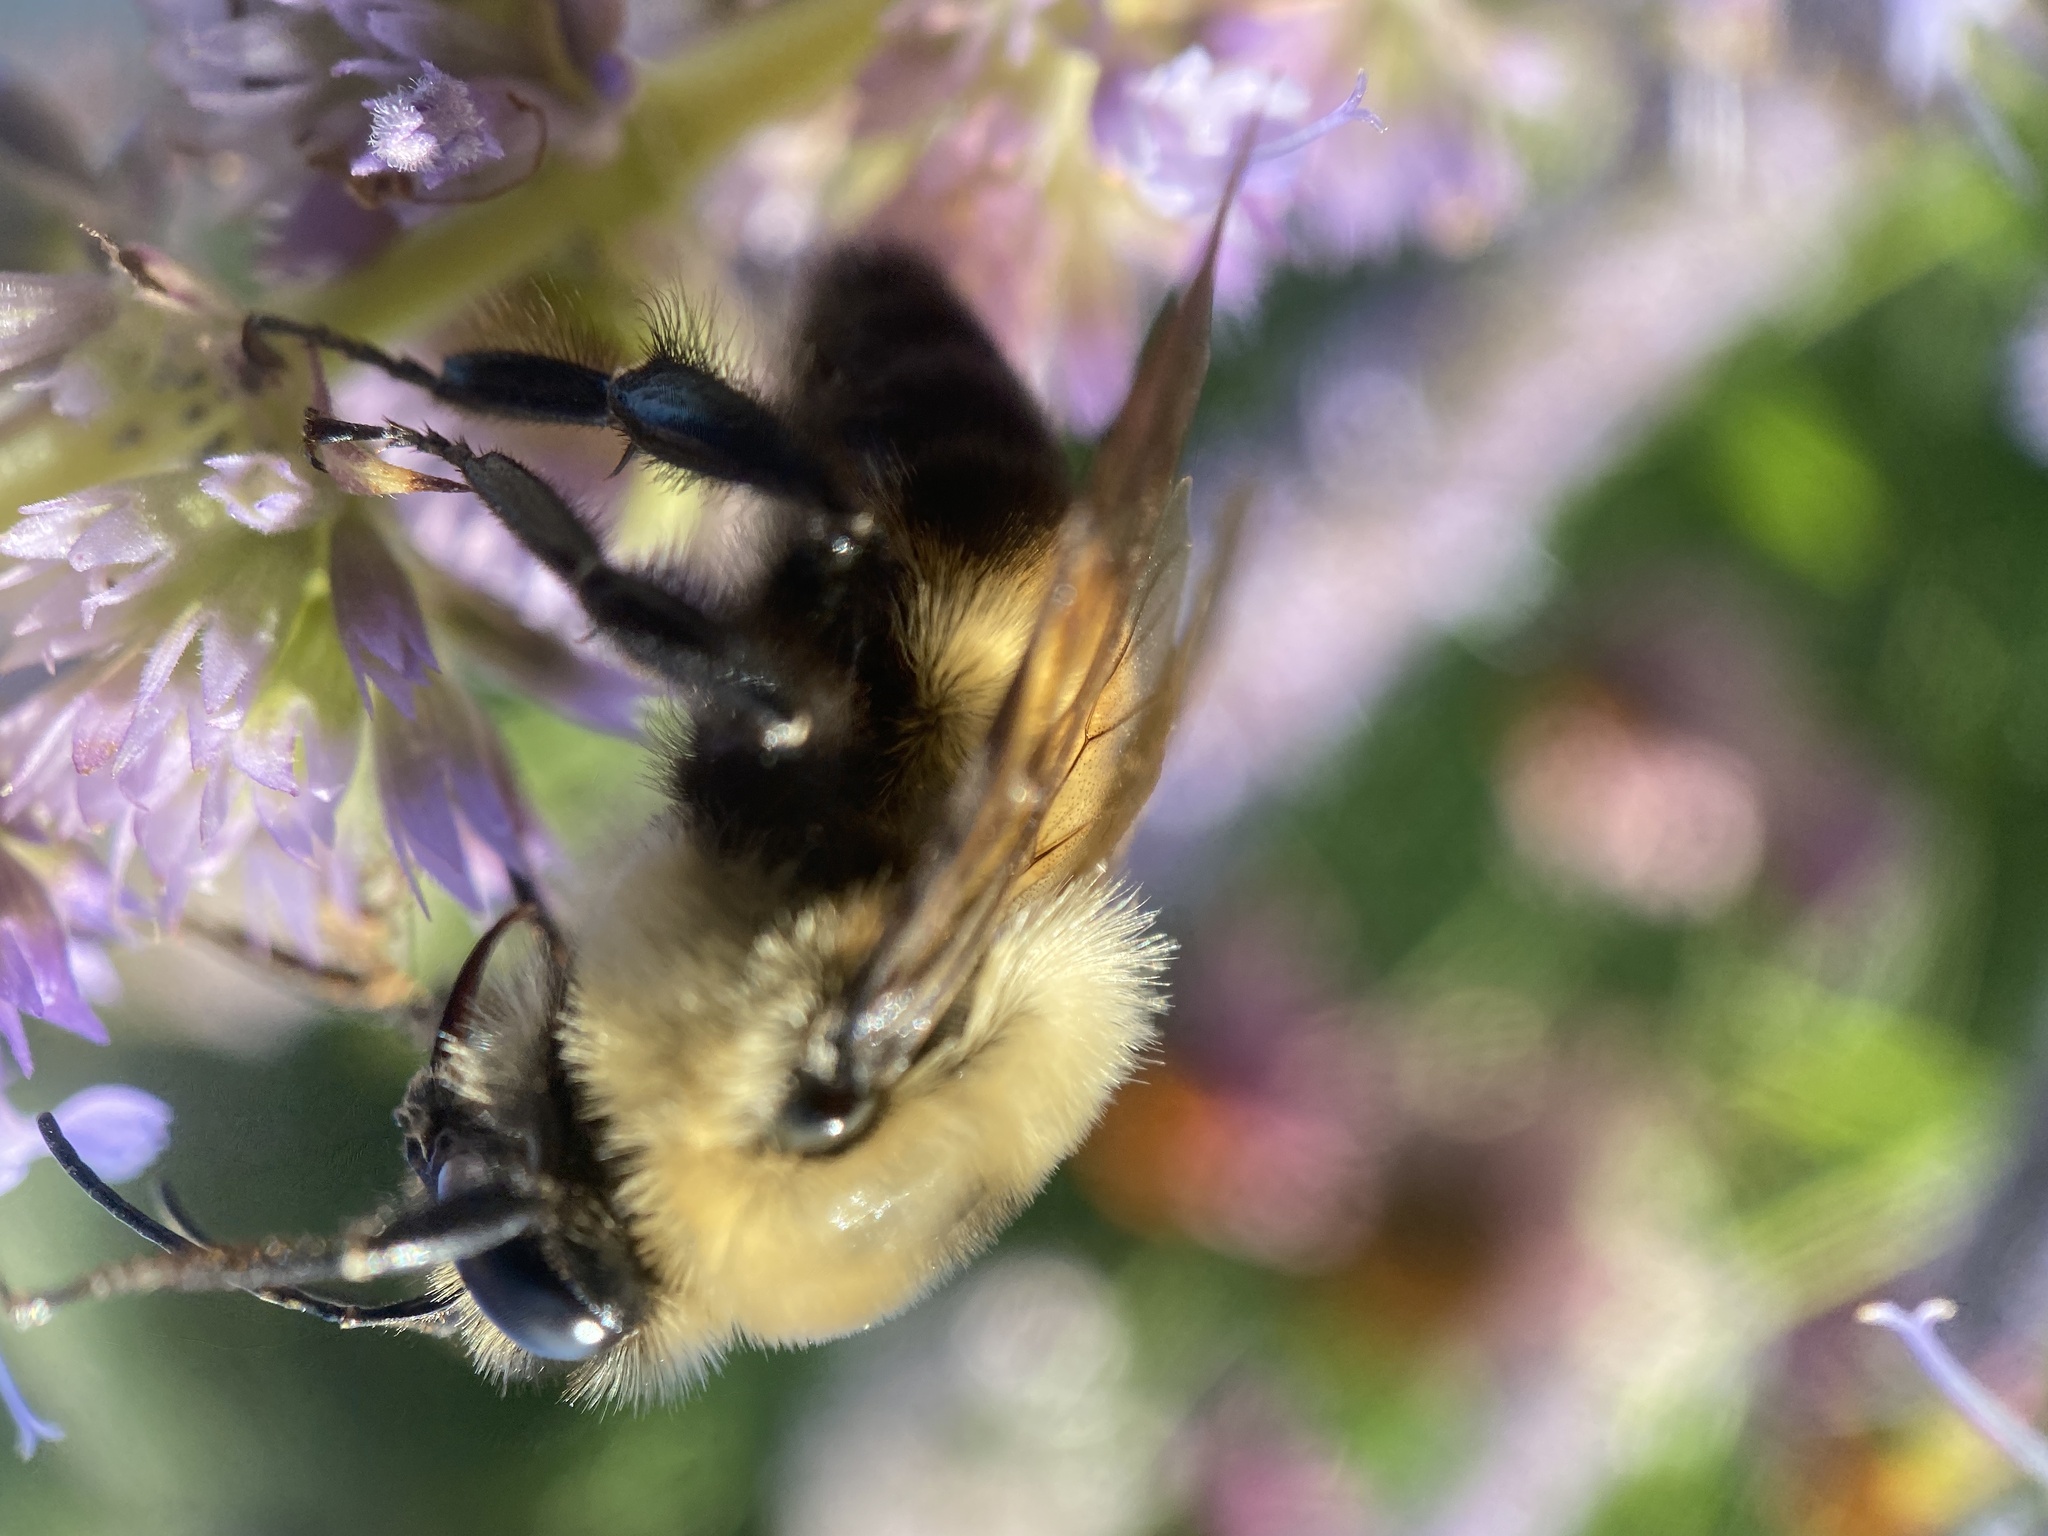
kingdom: Animalia
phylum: Arthropoda
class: Insecta
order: Hymenoptera
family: Apidae
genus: Bombus
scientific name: Bombus griseocollis
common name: Brown-belted bumble bee
